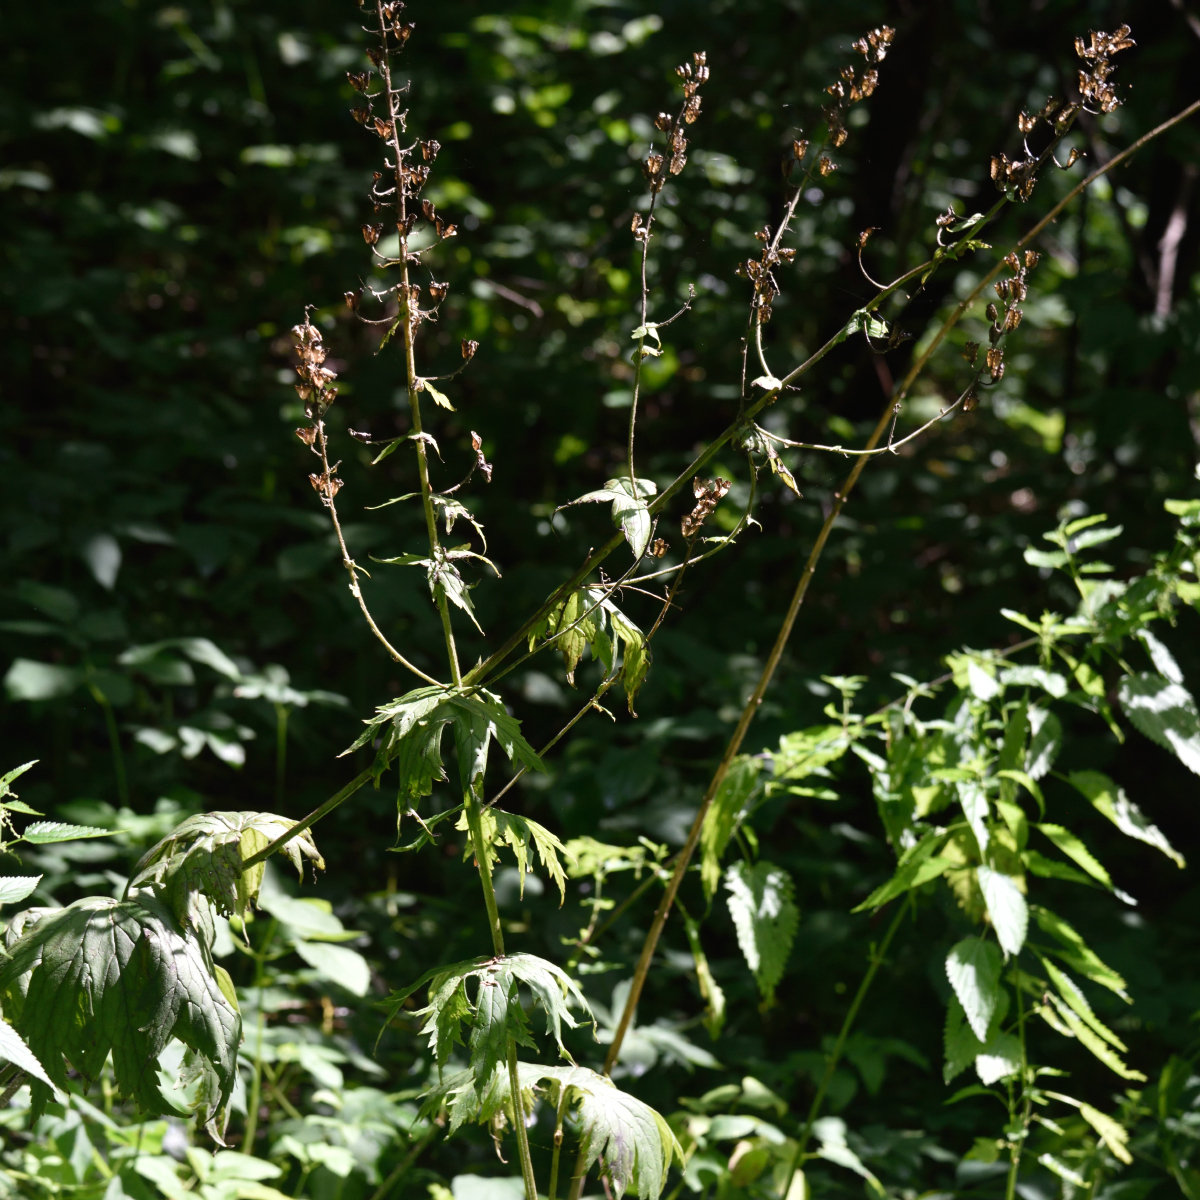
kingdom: Plantae
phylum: Tracheophyta
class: Magnoliopsida
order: Ranunculales
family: Ranunculaceae
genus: Aconitum
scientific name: Aconitum septentrionale
